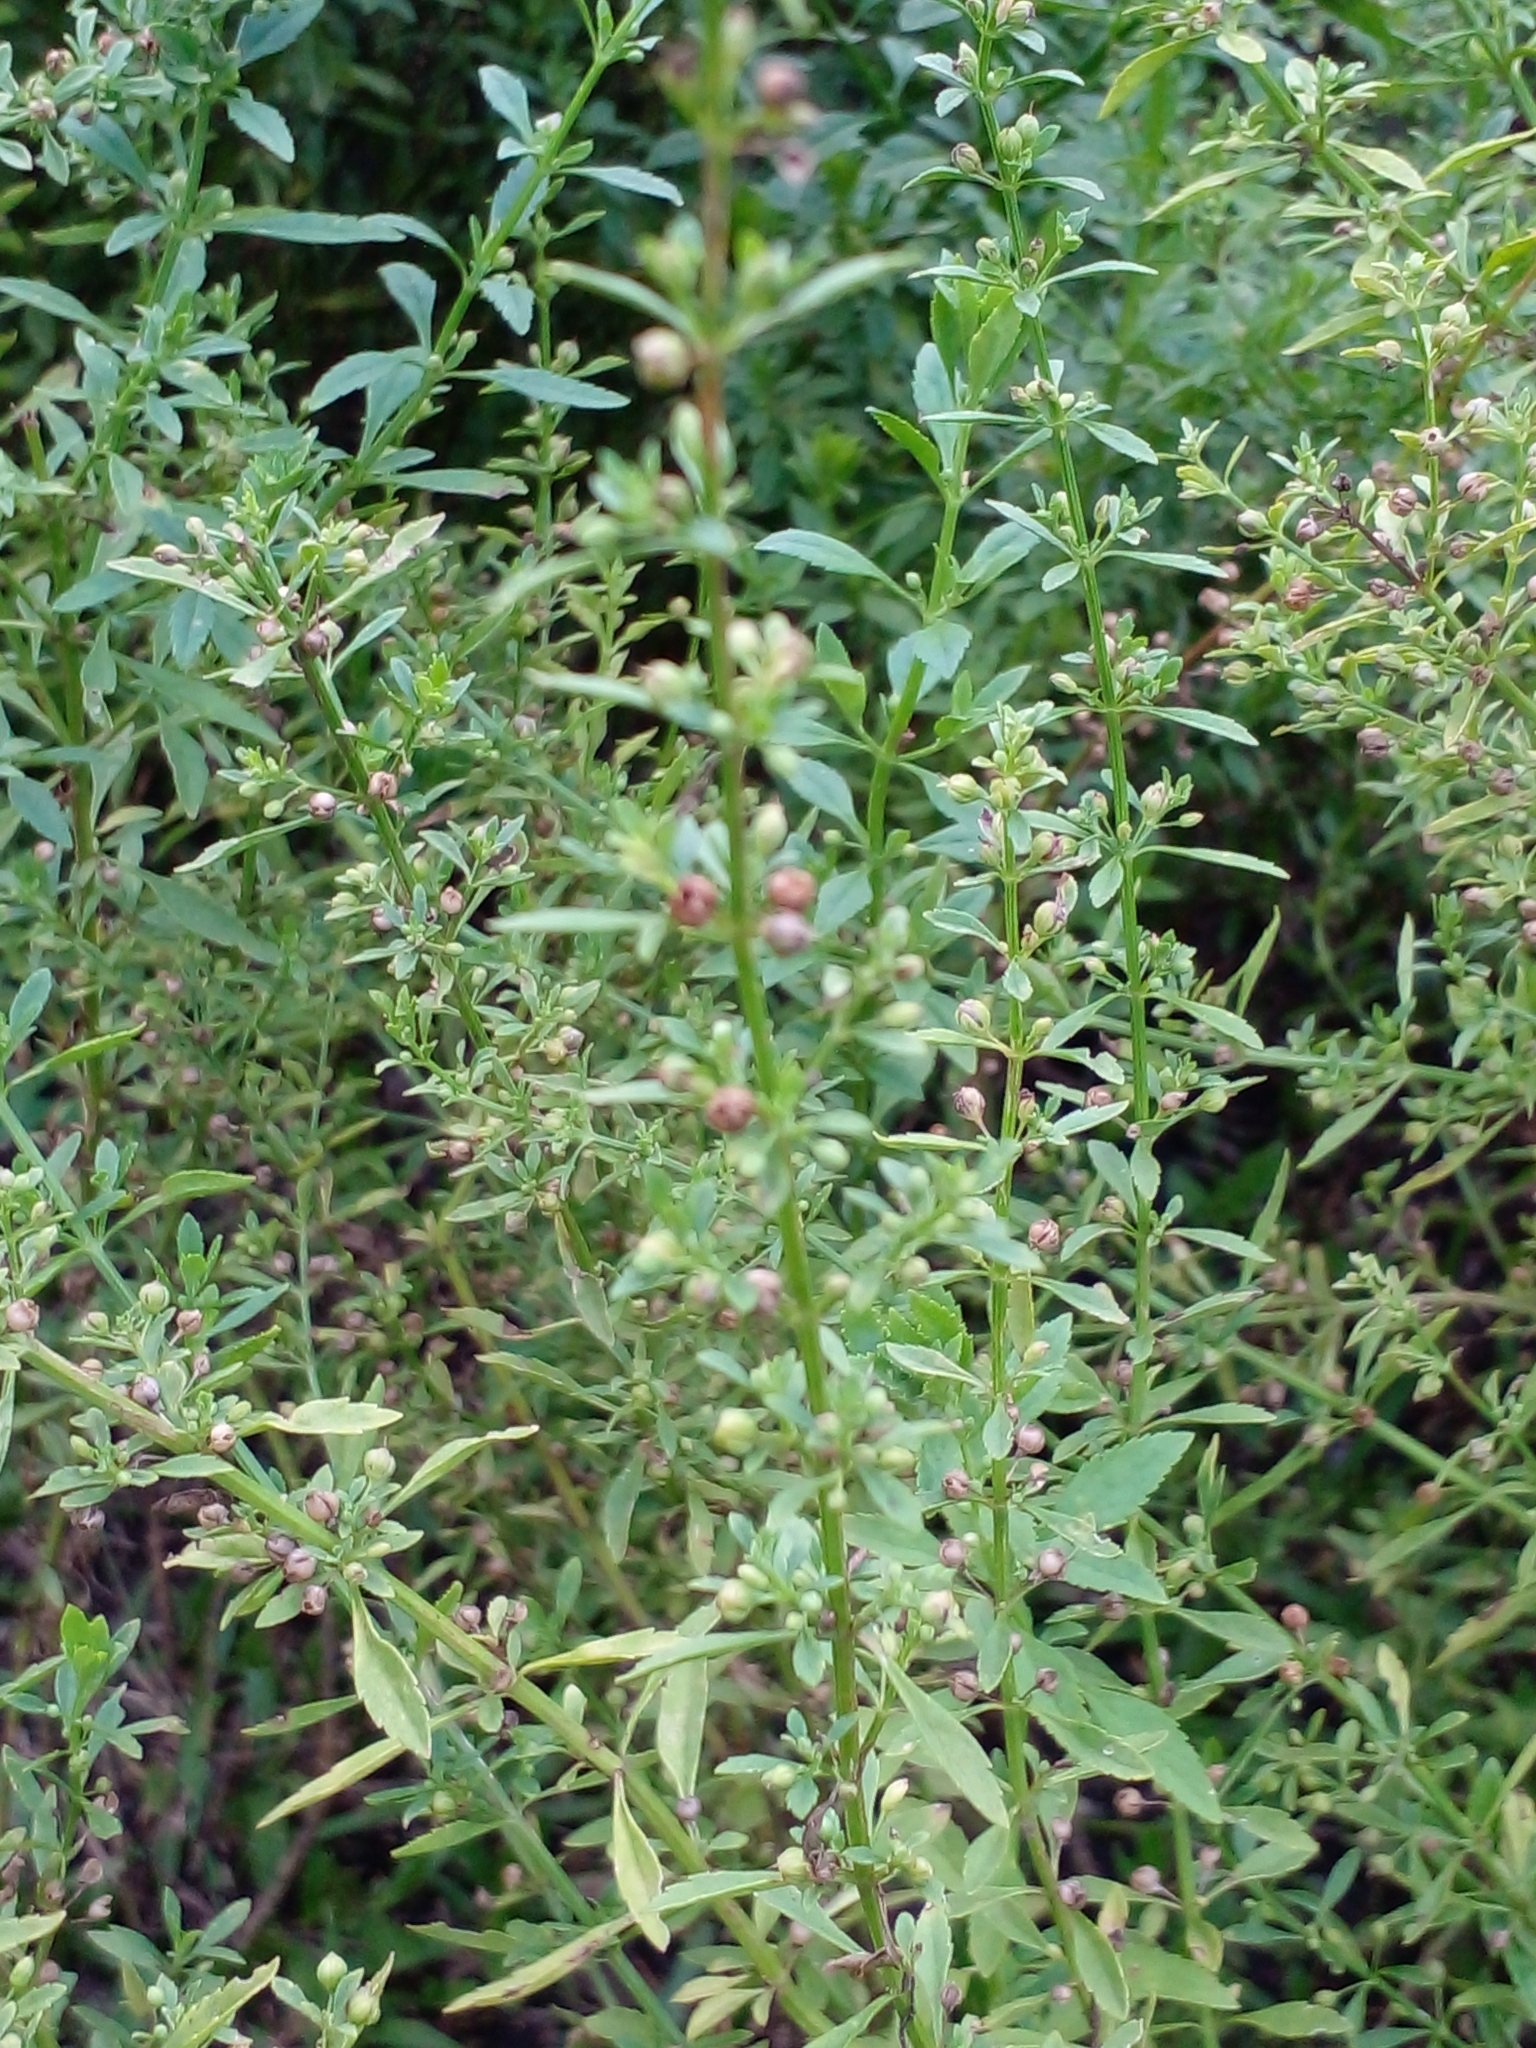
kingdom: Plantae
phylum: Tracheophyta
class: Magnoliopsida
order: Lamiales
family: Plantaginaceae
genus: Scoparia
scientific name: Scoparia dulcis
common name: Scoparia-weed
